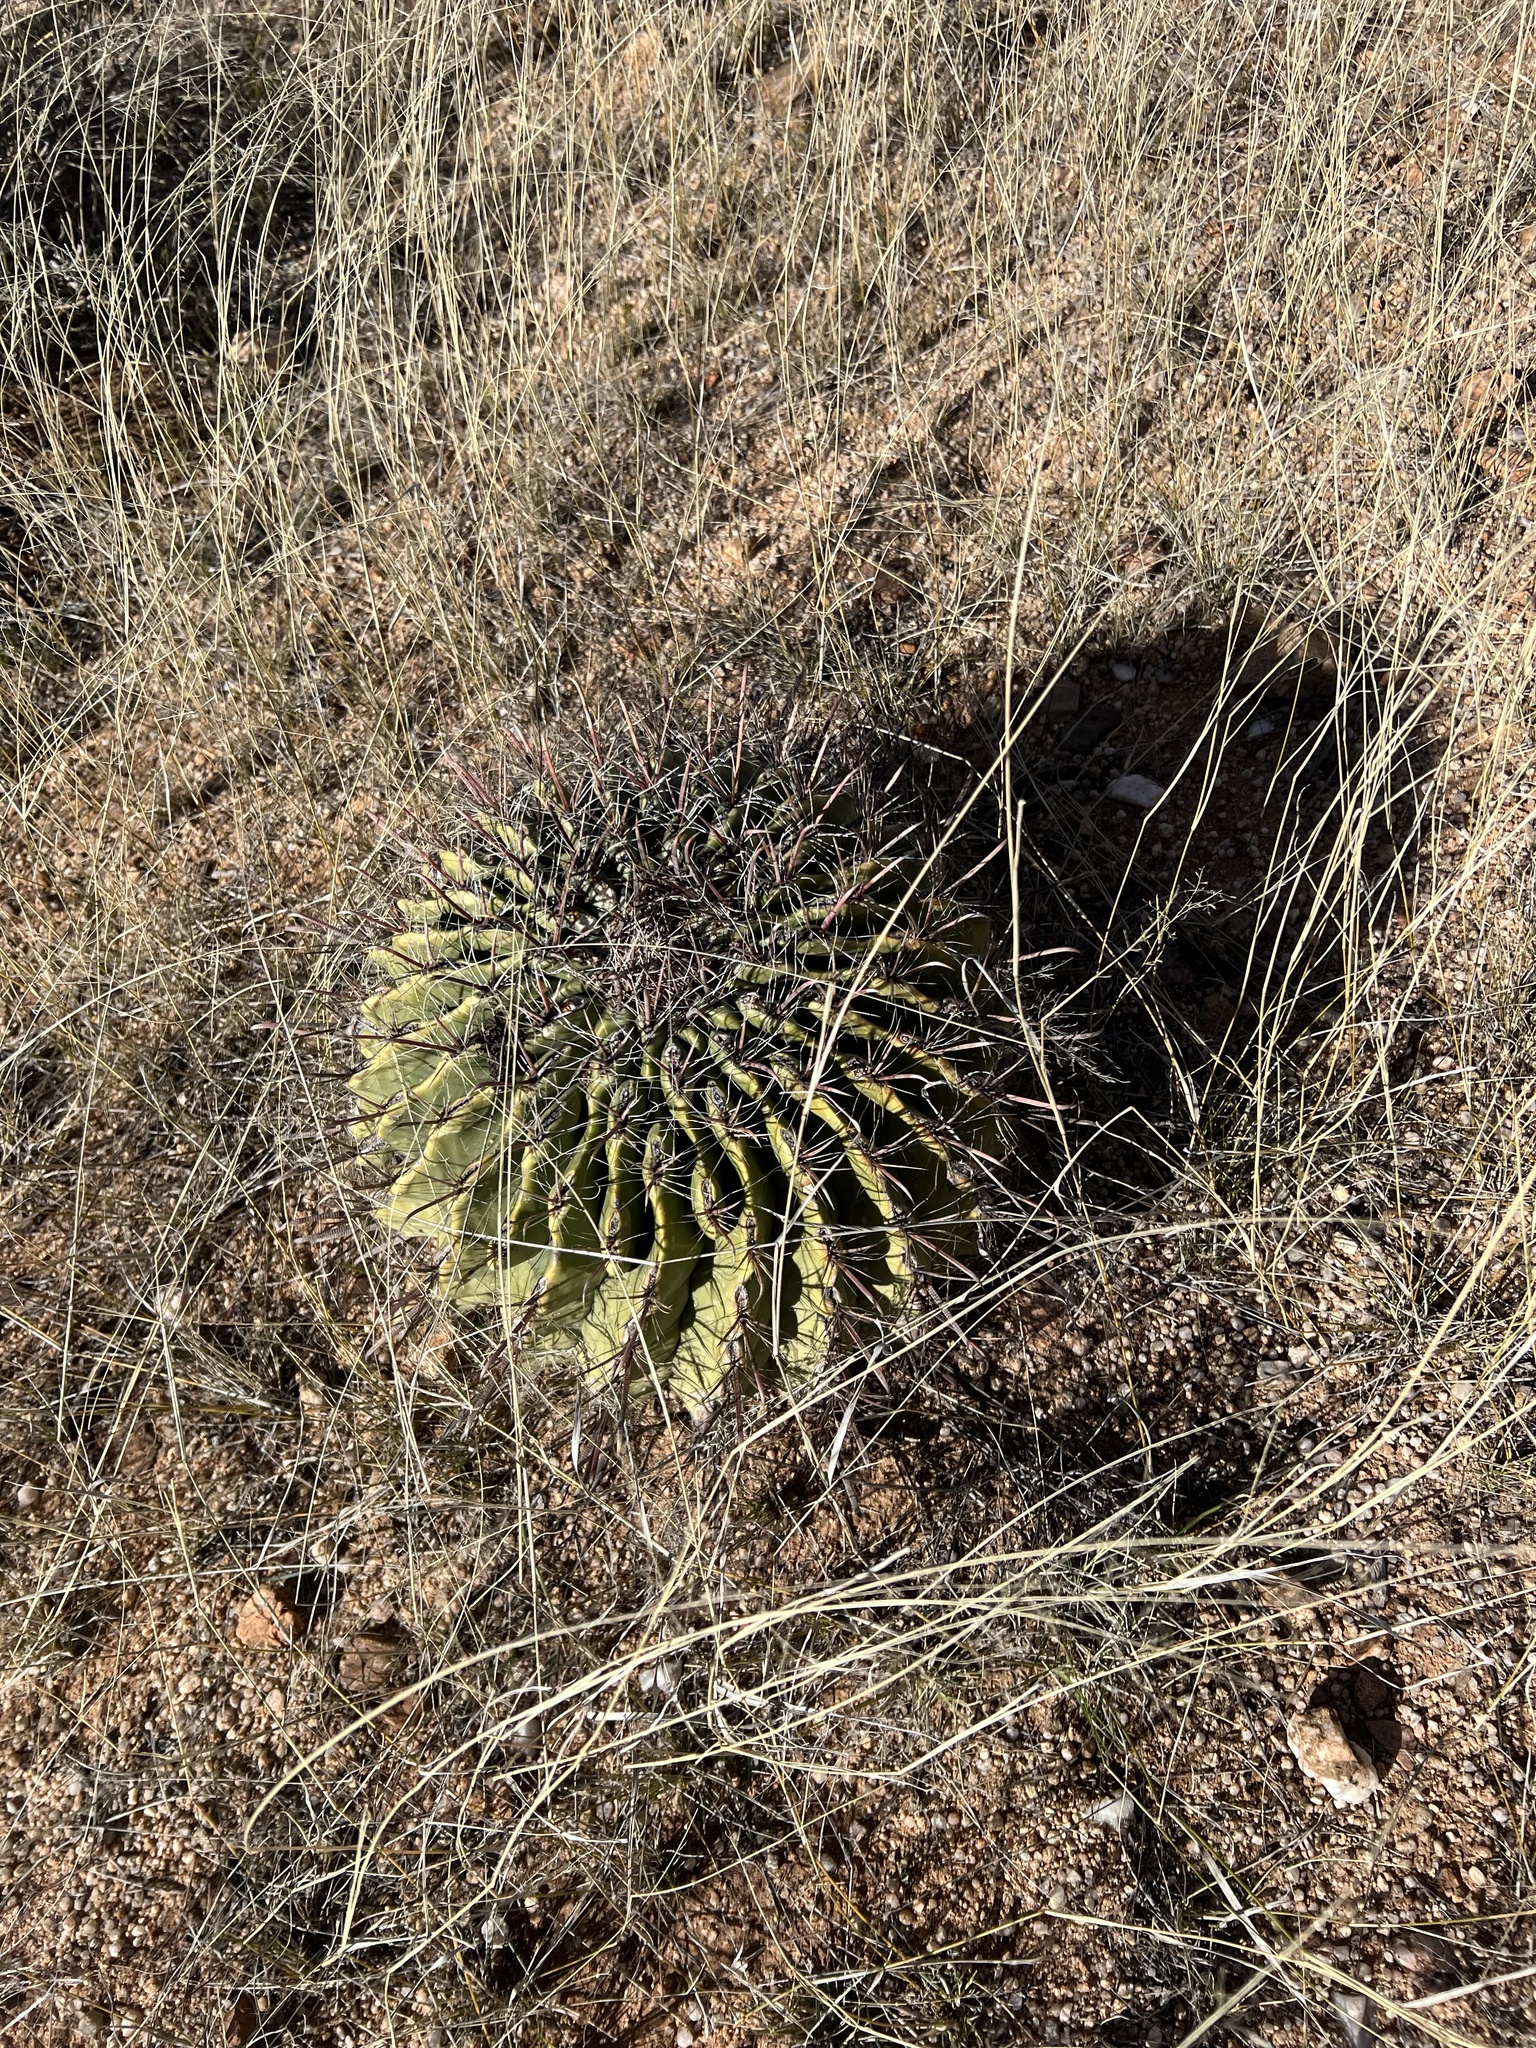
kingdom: Plantae
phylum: Tracheophyta
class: Magnoliopsida
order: Caryophyllales
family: Cactaceae
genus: Ferocactus
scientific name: Ferocactus wislizeni
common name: Candy barrel cactus
